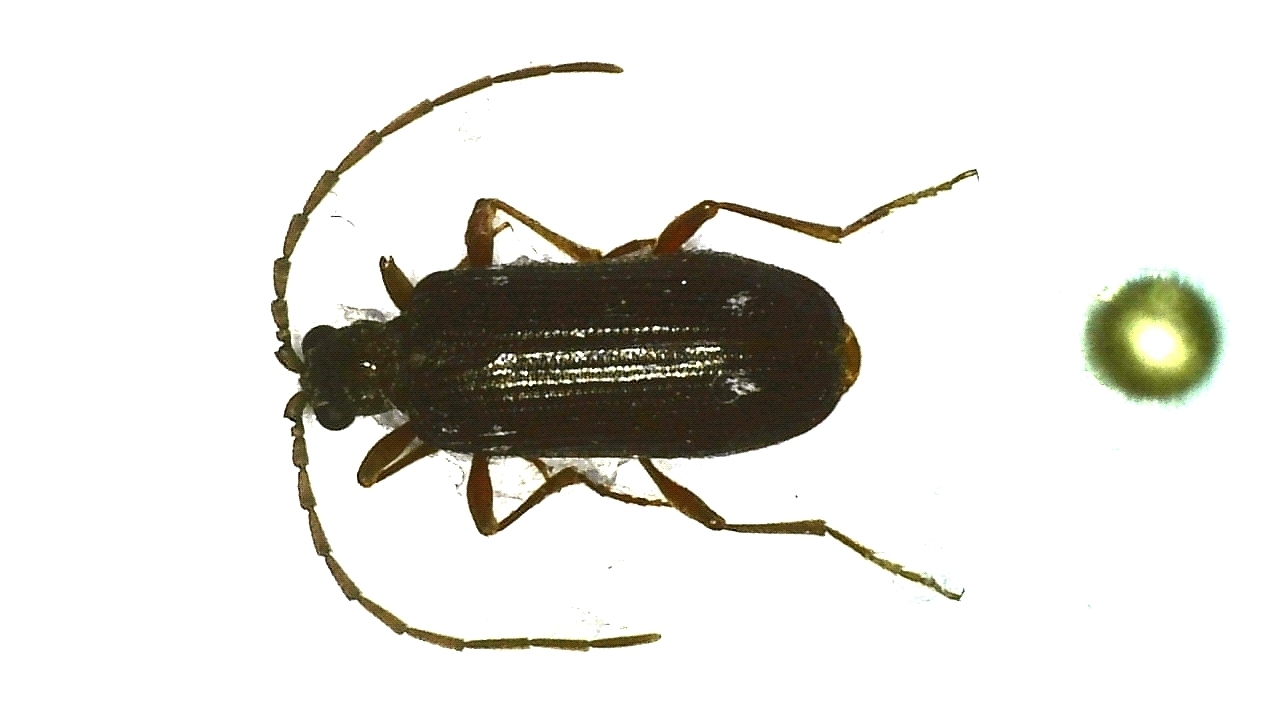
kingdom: Animalia
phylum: Arthropoda
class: Insecta
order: Coleoptera
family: Ptinidae
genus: Ptinus
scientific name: Ptinus
